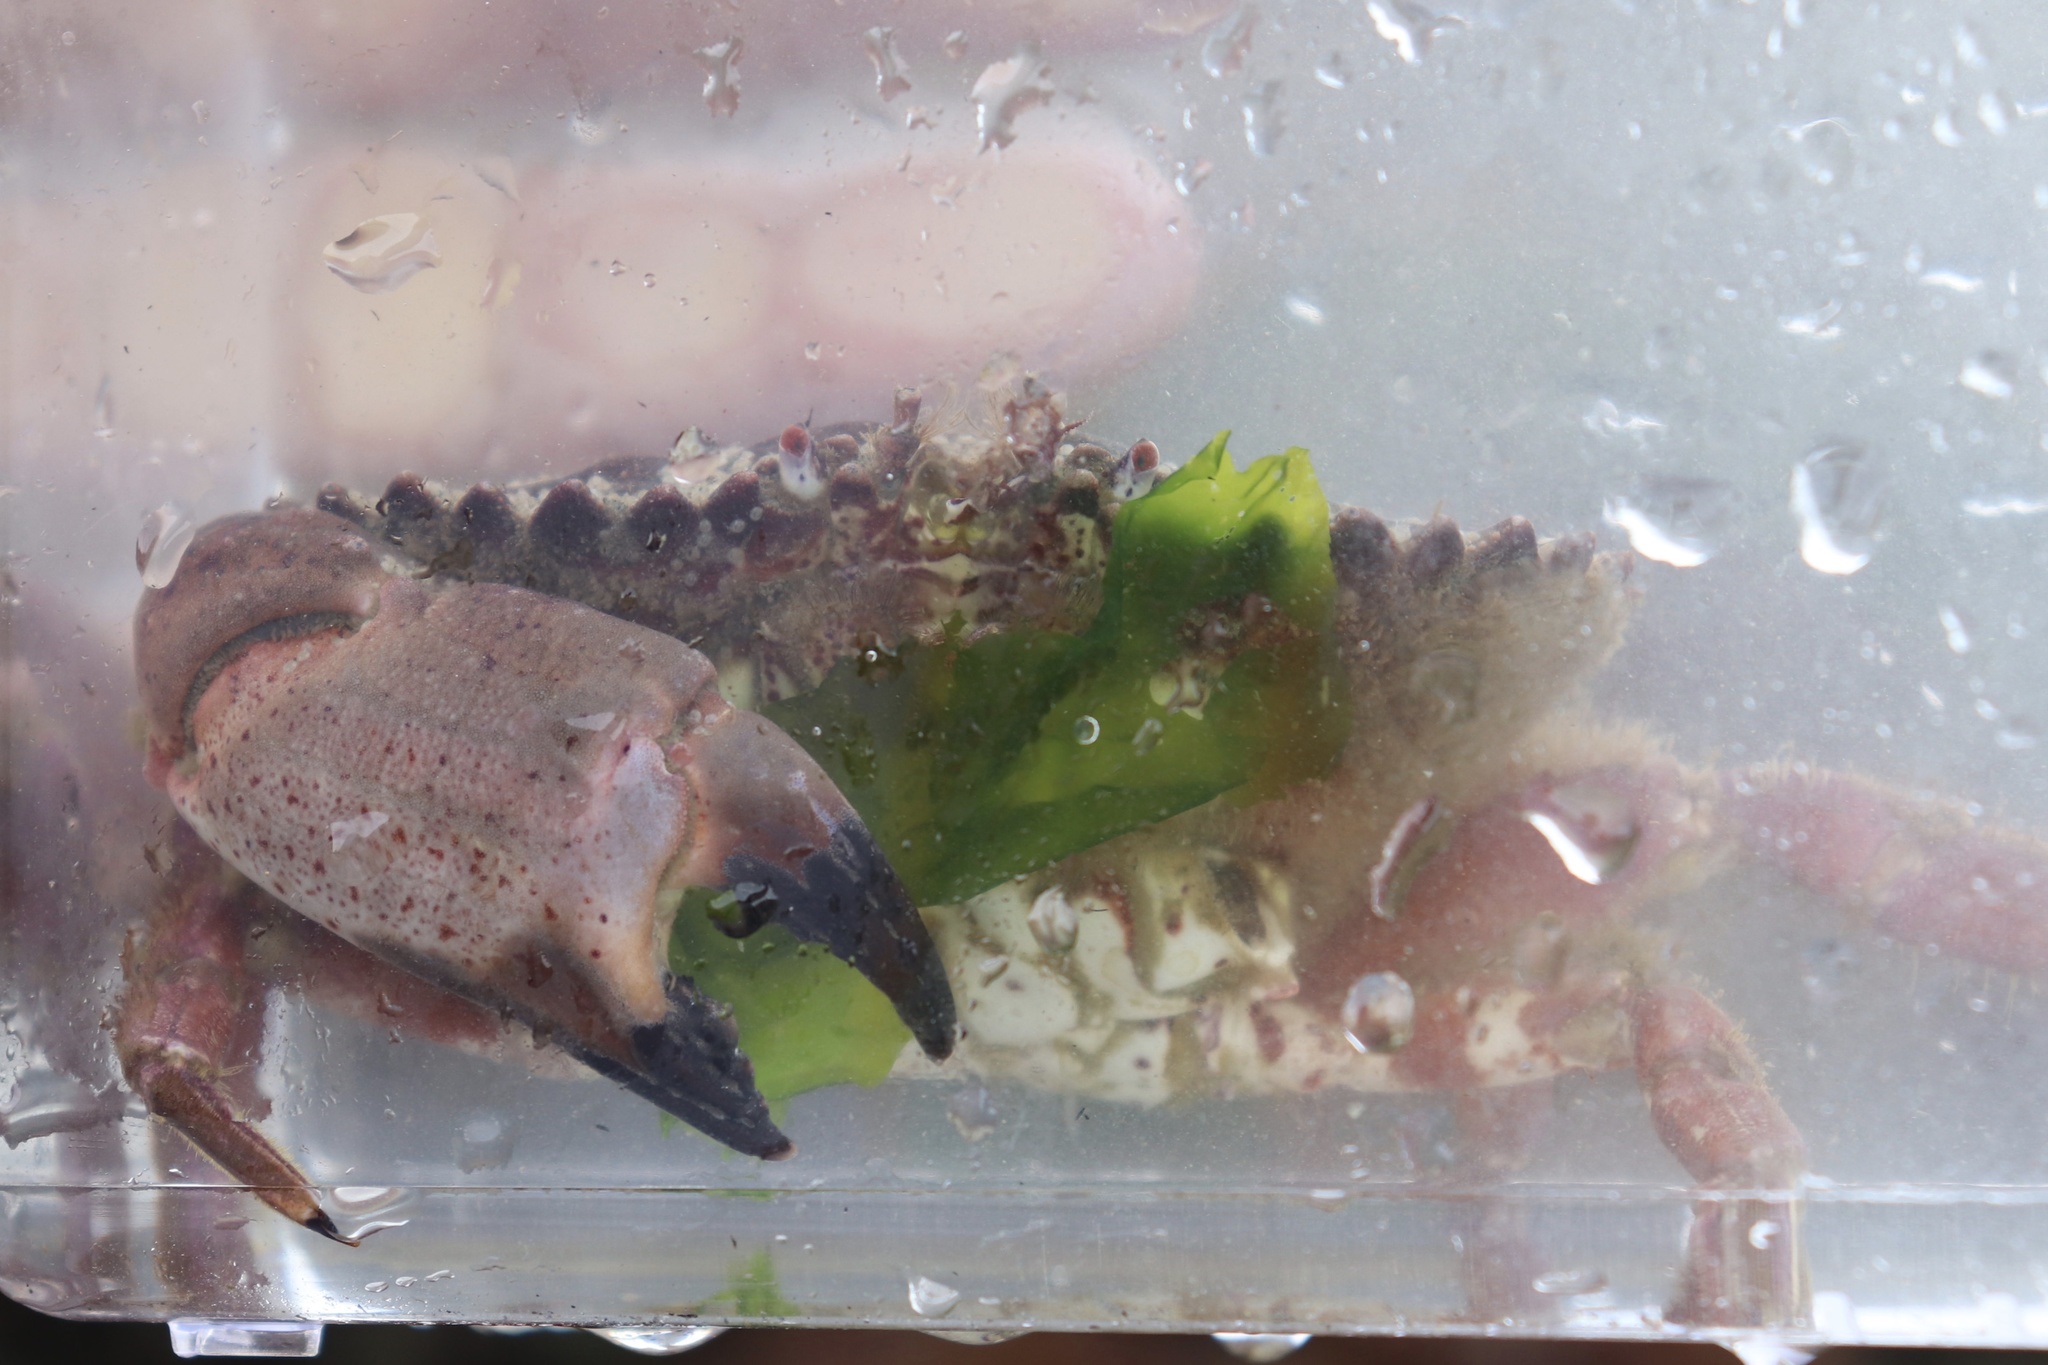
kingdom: Animalia
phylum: Arthropoda
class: Malacostraca
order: Decapoda
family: Cancridae
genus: Romaleon
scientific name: Romaleon antennarium
